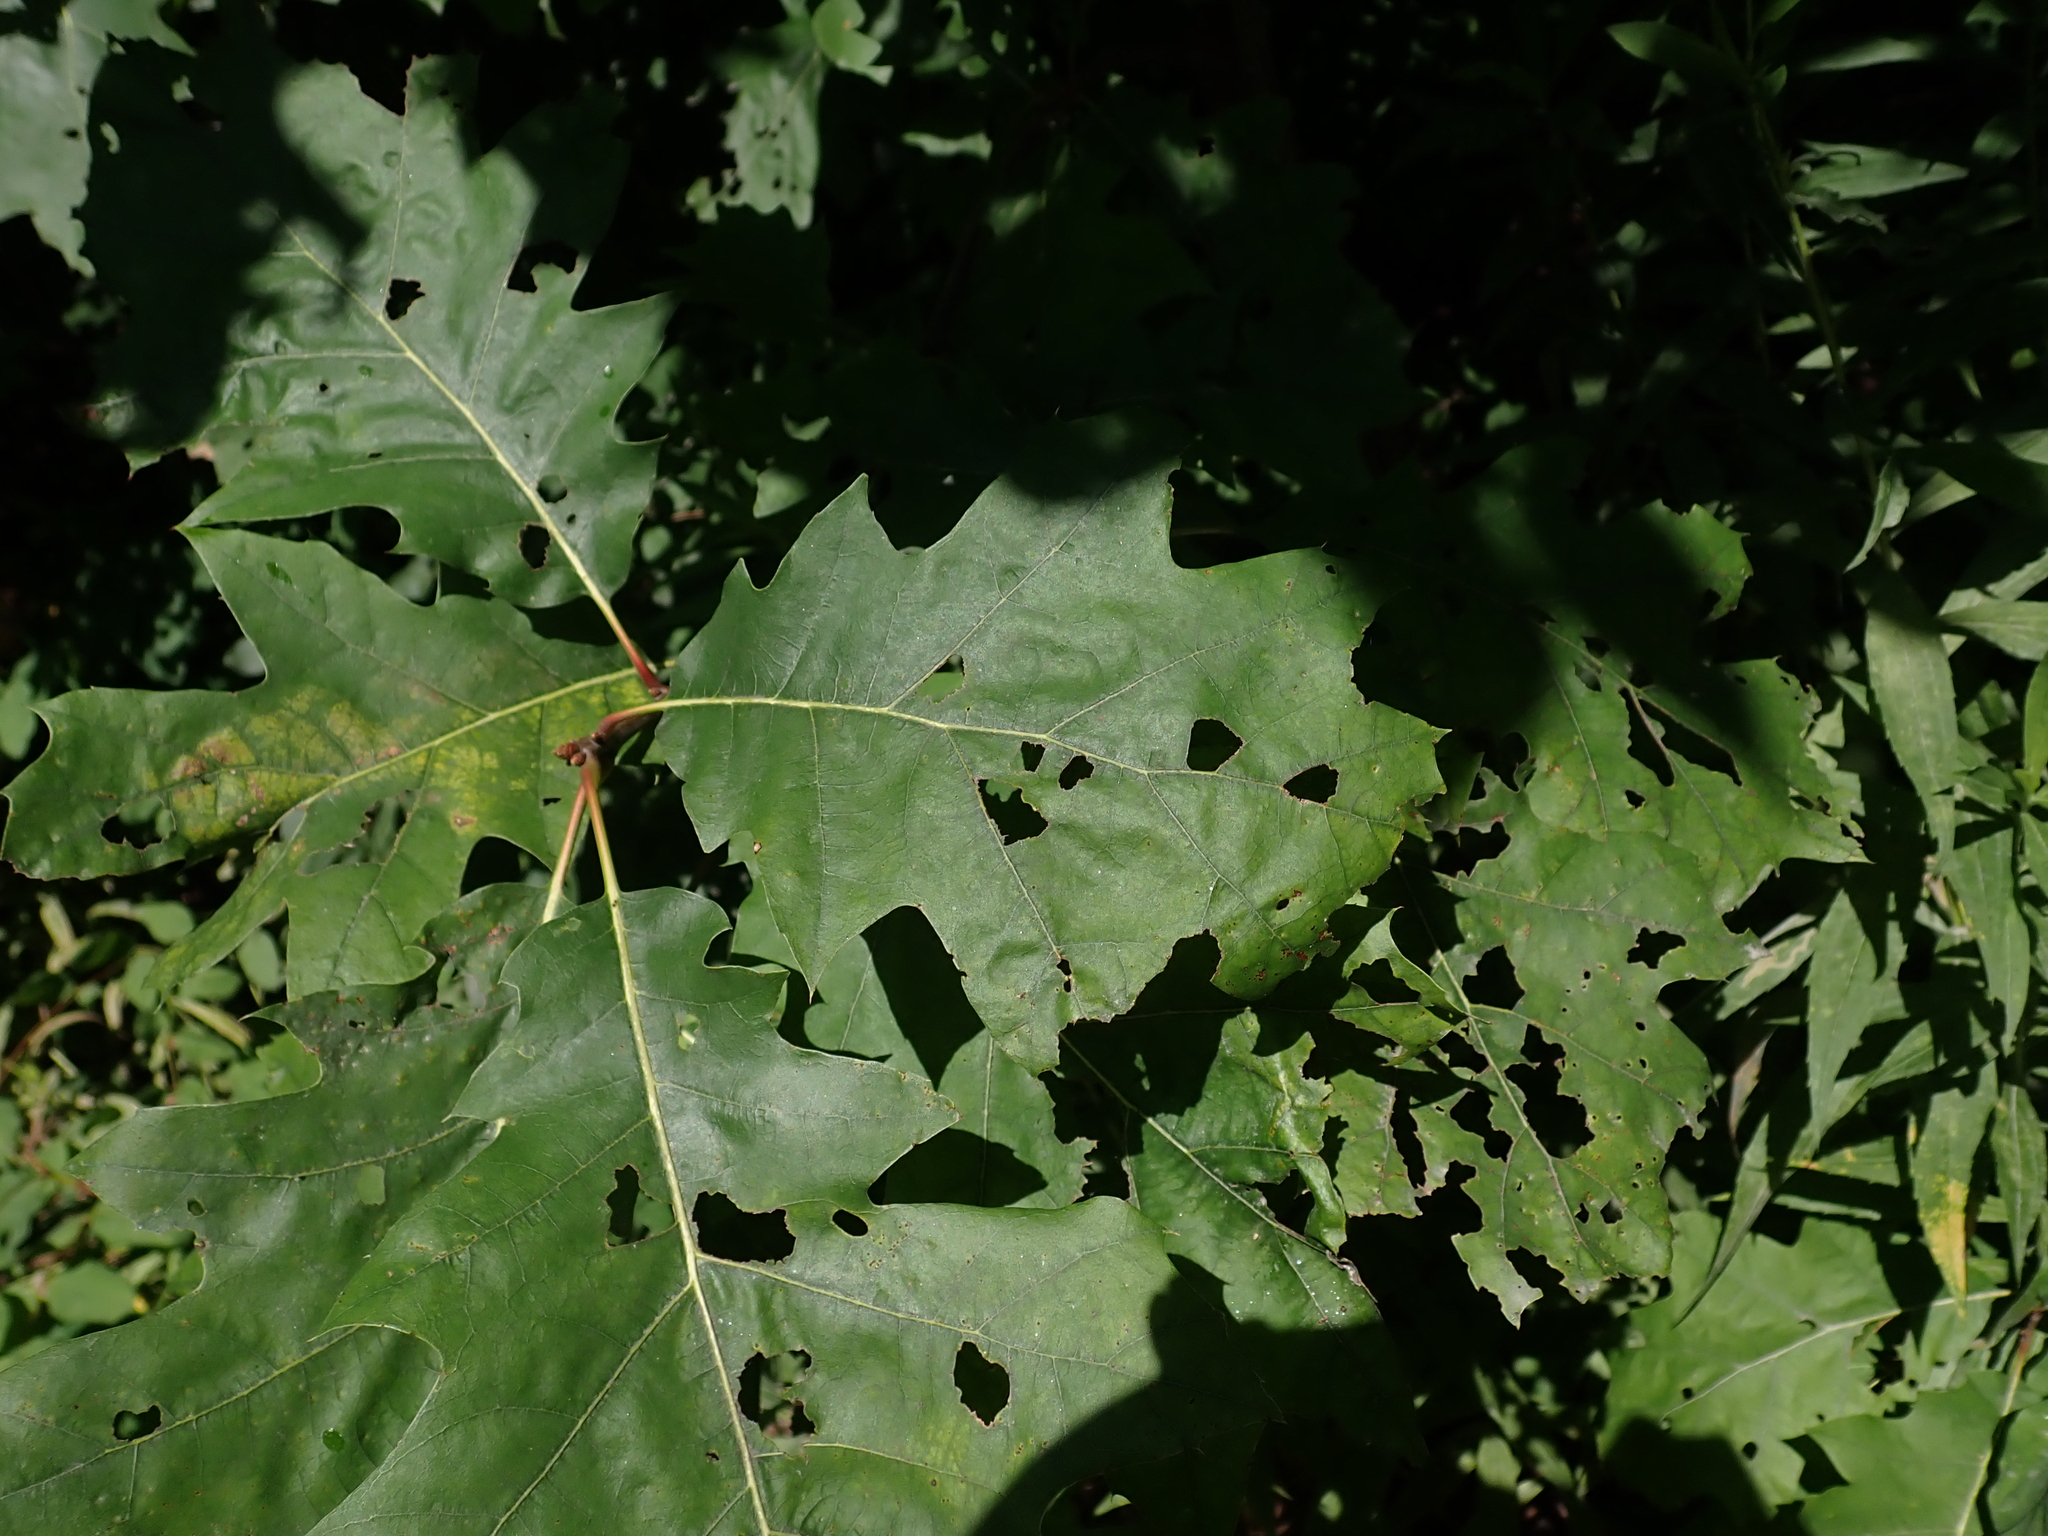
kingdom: Plantae
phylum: Tracheophyta
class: Magnoliopsida
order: Fagales
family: Fagaceae
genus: Quercus
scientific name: Quercus rubra
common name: Red oak
